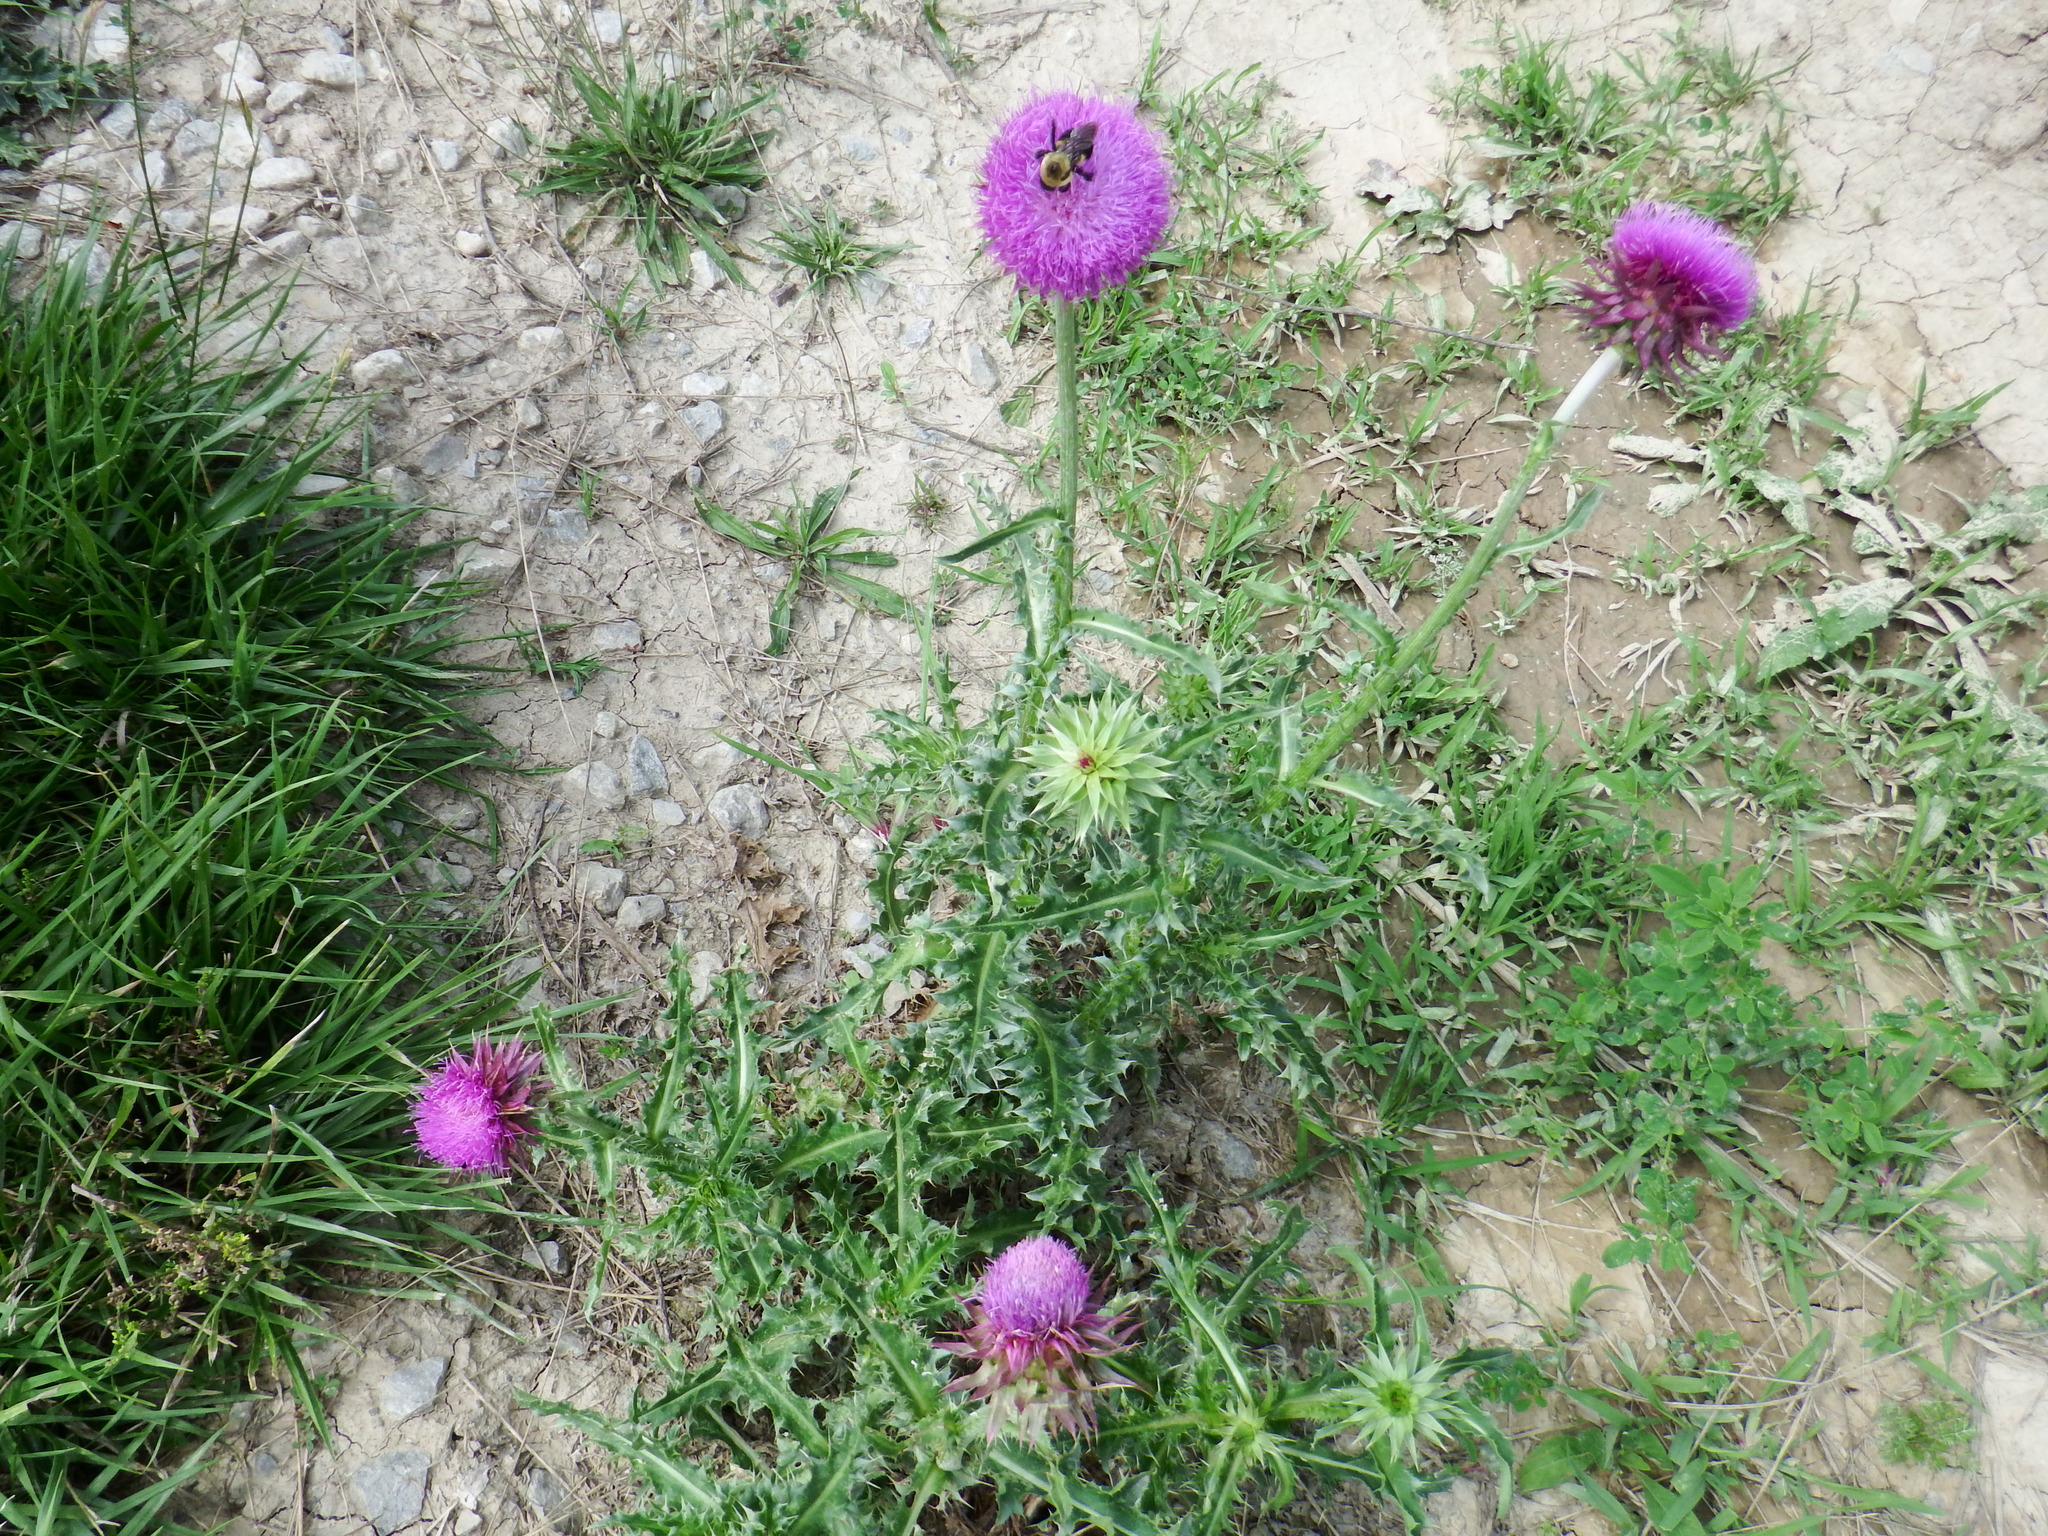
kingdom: Plantae
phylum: Tracheophyta
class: Magnoliopsida
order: Asterales
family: Asteraceae
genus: Carduus
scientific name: Carduus nutans
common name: Musk thistle
